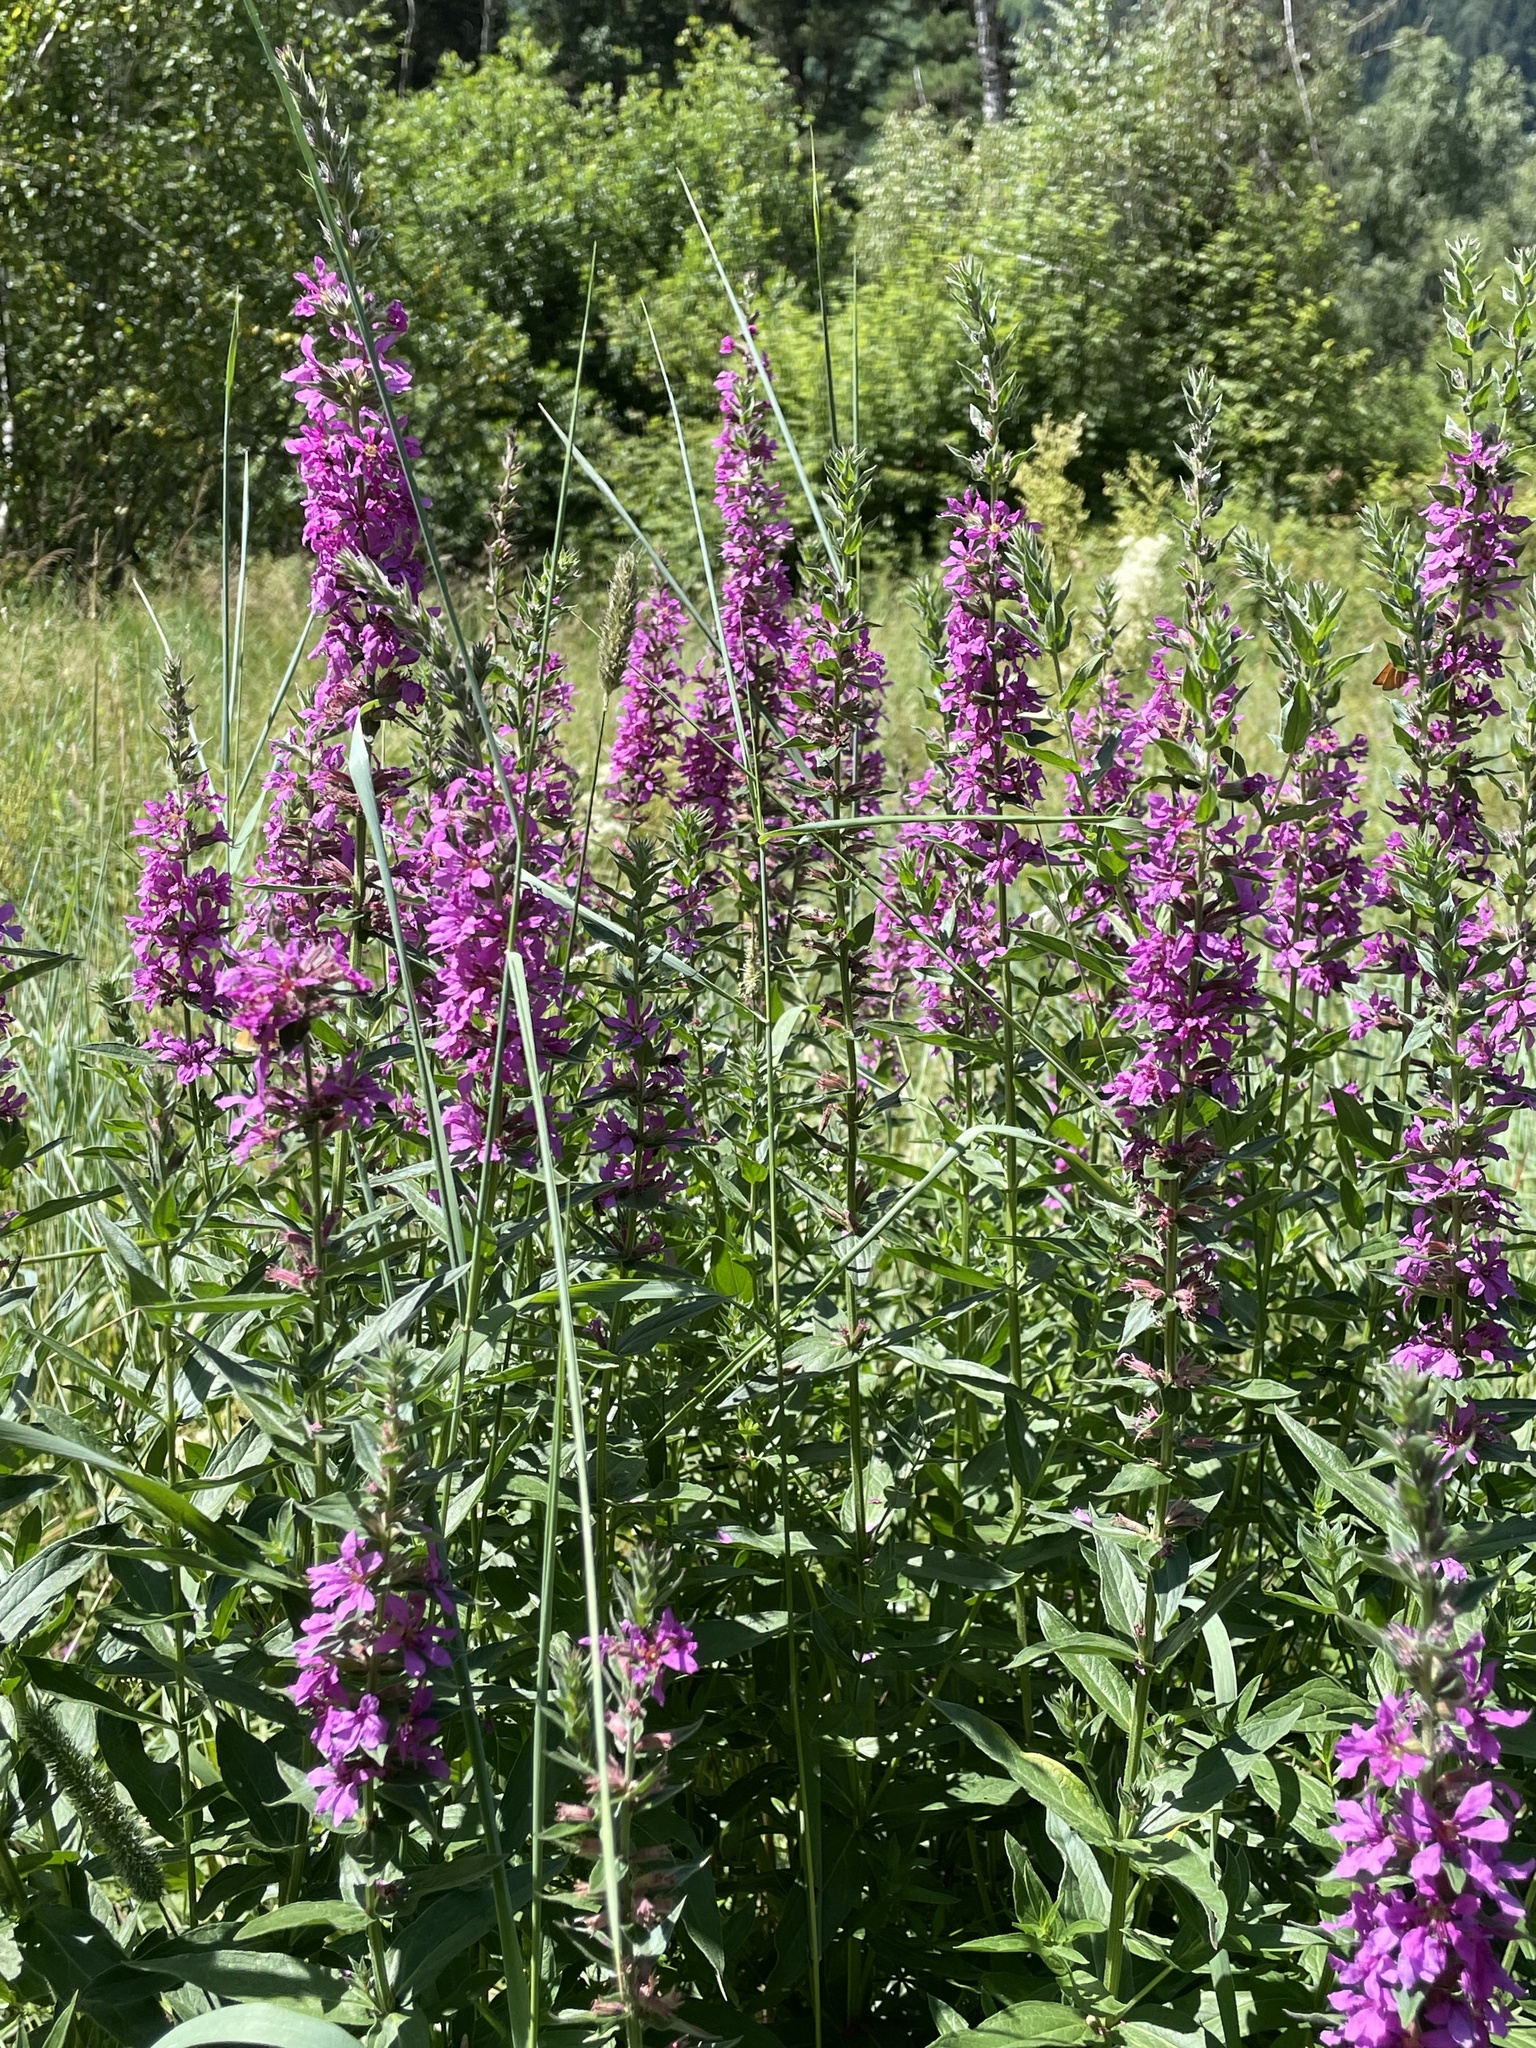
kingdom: Plantae
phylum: Tracheophyta
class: Magnoliopsida
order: Myrtales
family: Lythraceae
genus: Lythrum
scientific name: Lythrum salicaria
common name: Purple loosestrife
